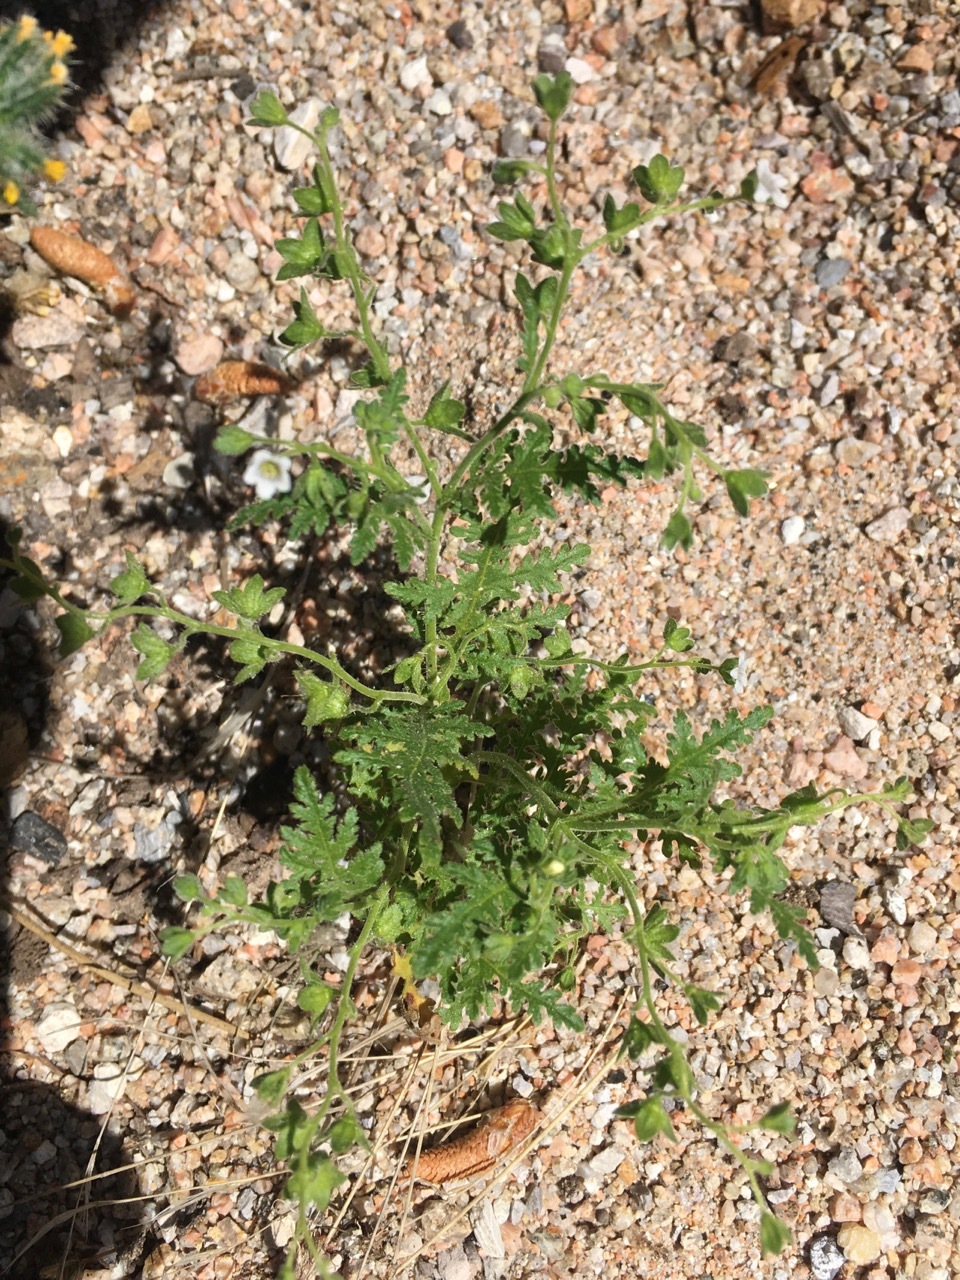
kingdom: Plantae
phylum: Tracheophyta
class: Magnoliopsida
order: Boraginales
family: Hydrophyllaceae
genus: Eucrypta
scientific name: Eucrypta chrysanthemifolia
